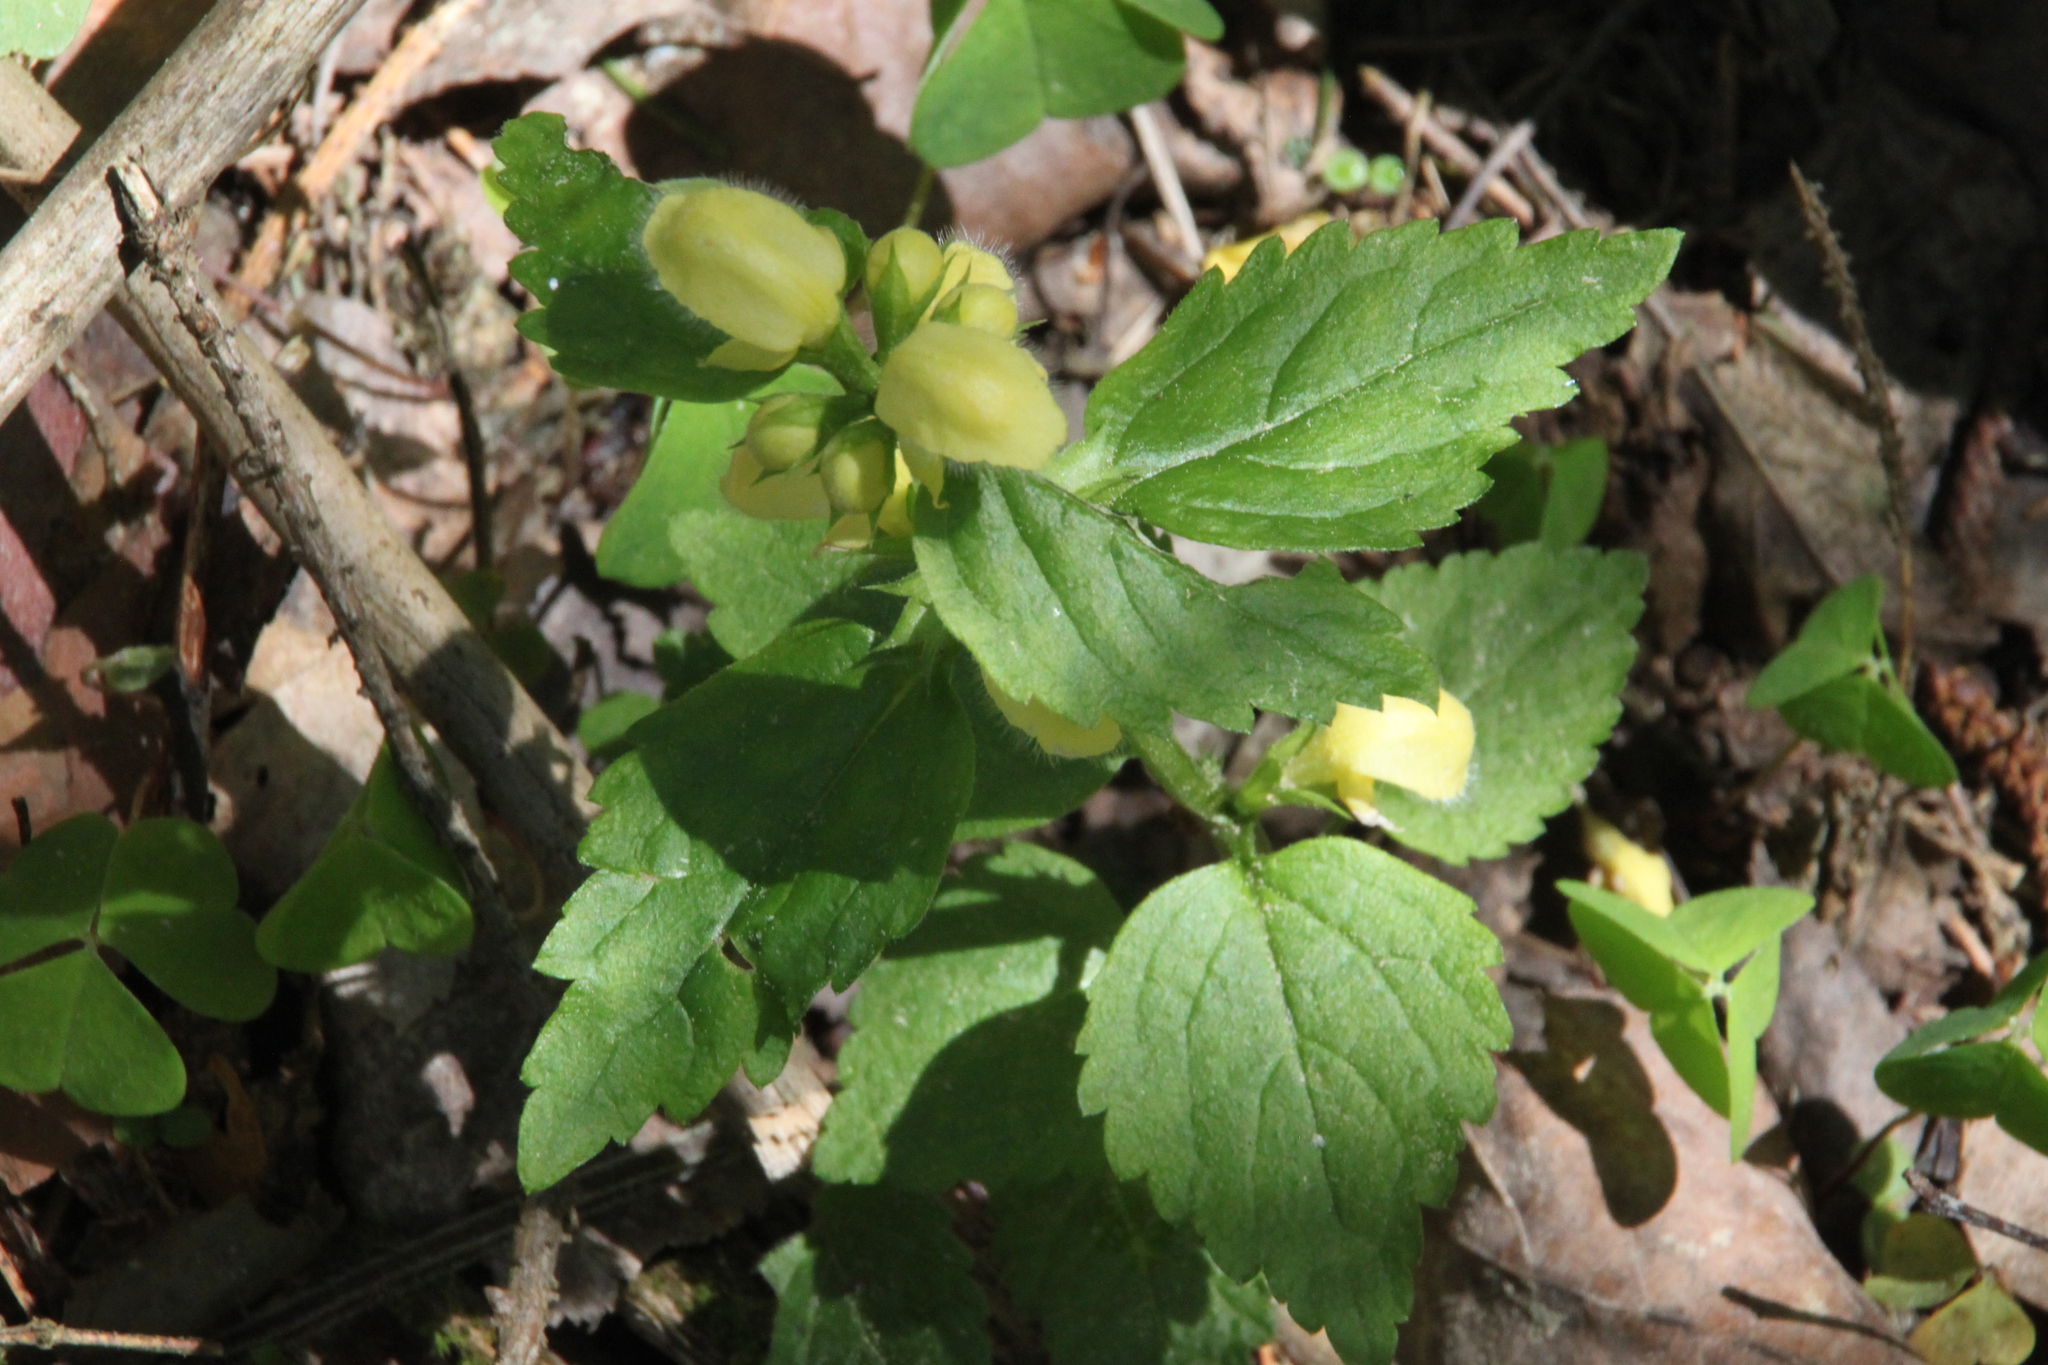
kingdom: Plantae
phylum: Tracheophyta
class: Magnoliopsida
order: Lamiales
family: Lamiaceae
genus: Lamium
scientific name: Lamium galeobdolon
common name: Yellow archangel
